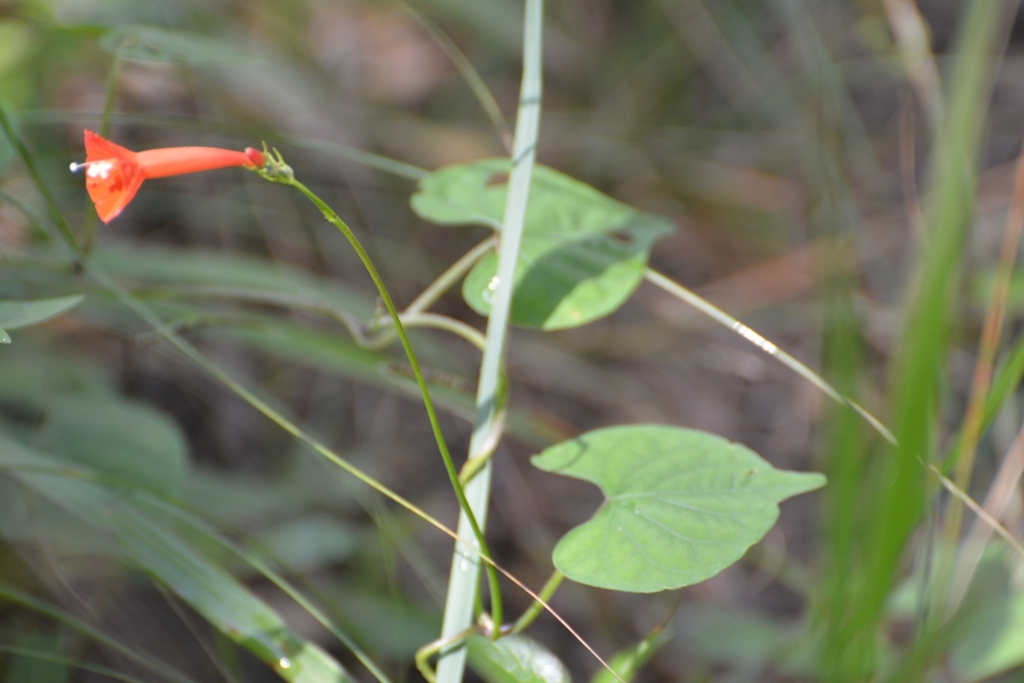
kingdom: Plantae
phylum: Tracheophyta
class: Magnoliopsida
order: Solanales
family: Convolvulaceae
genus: Ipomoea
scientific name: Ipomoea hederifolia
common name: Ivy-leaf morning-glory
